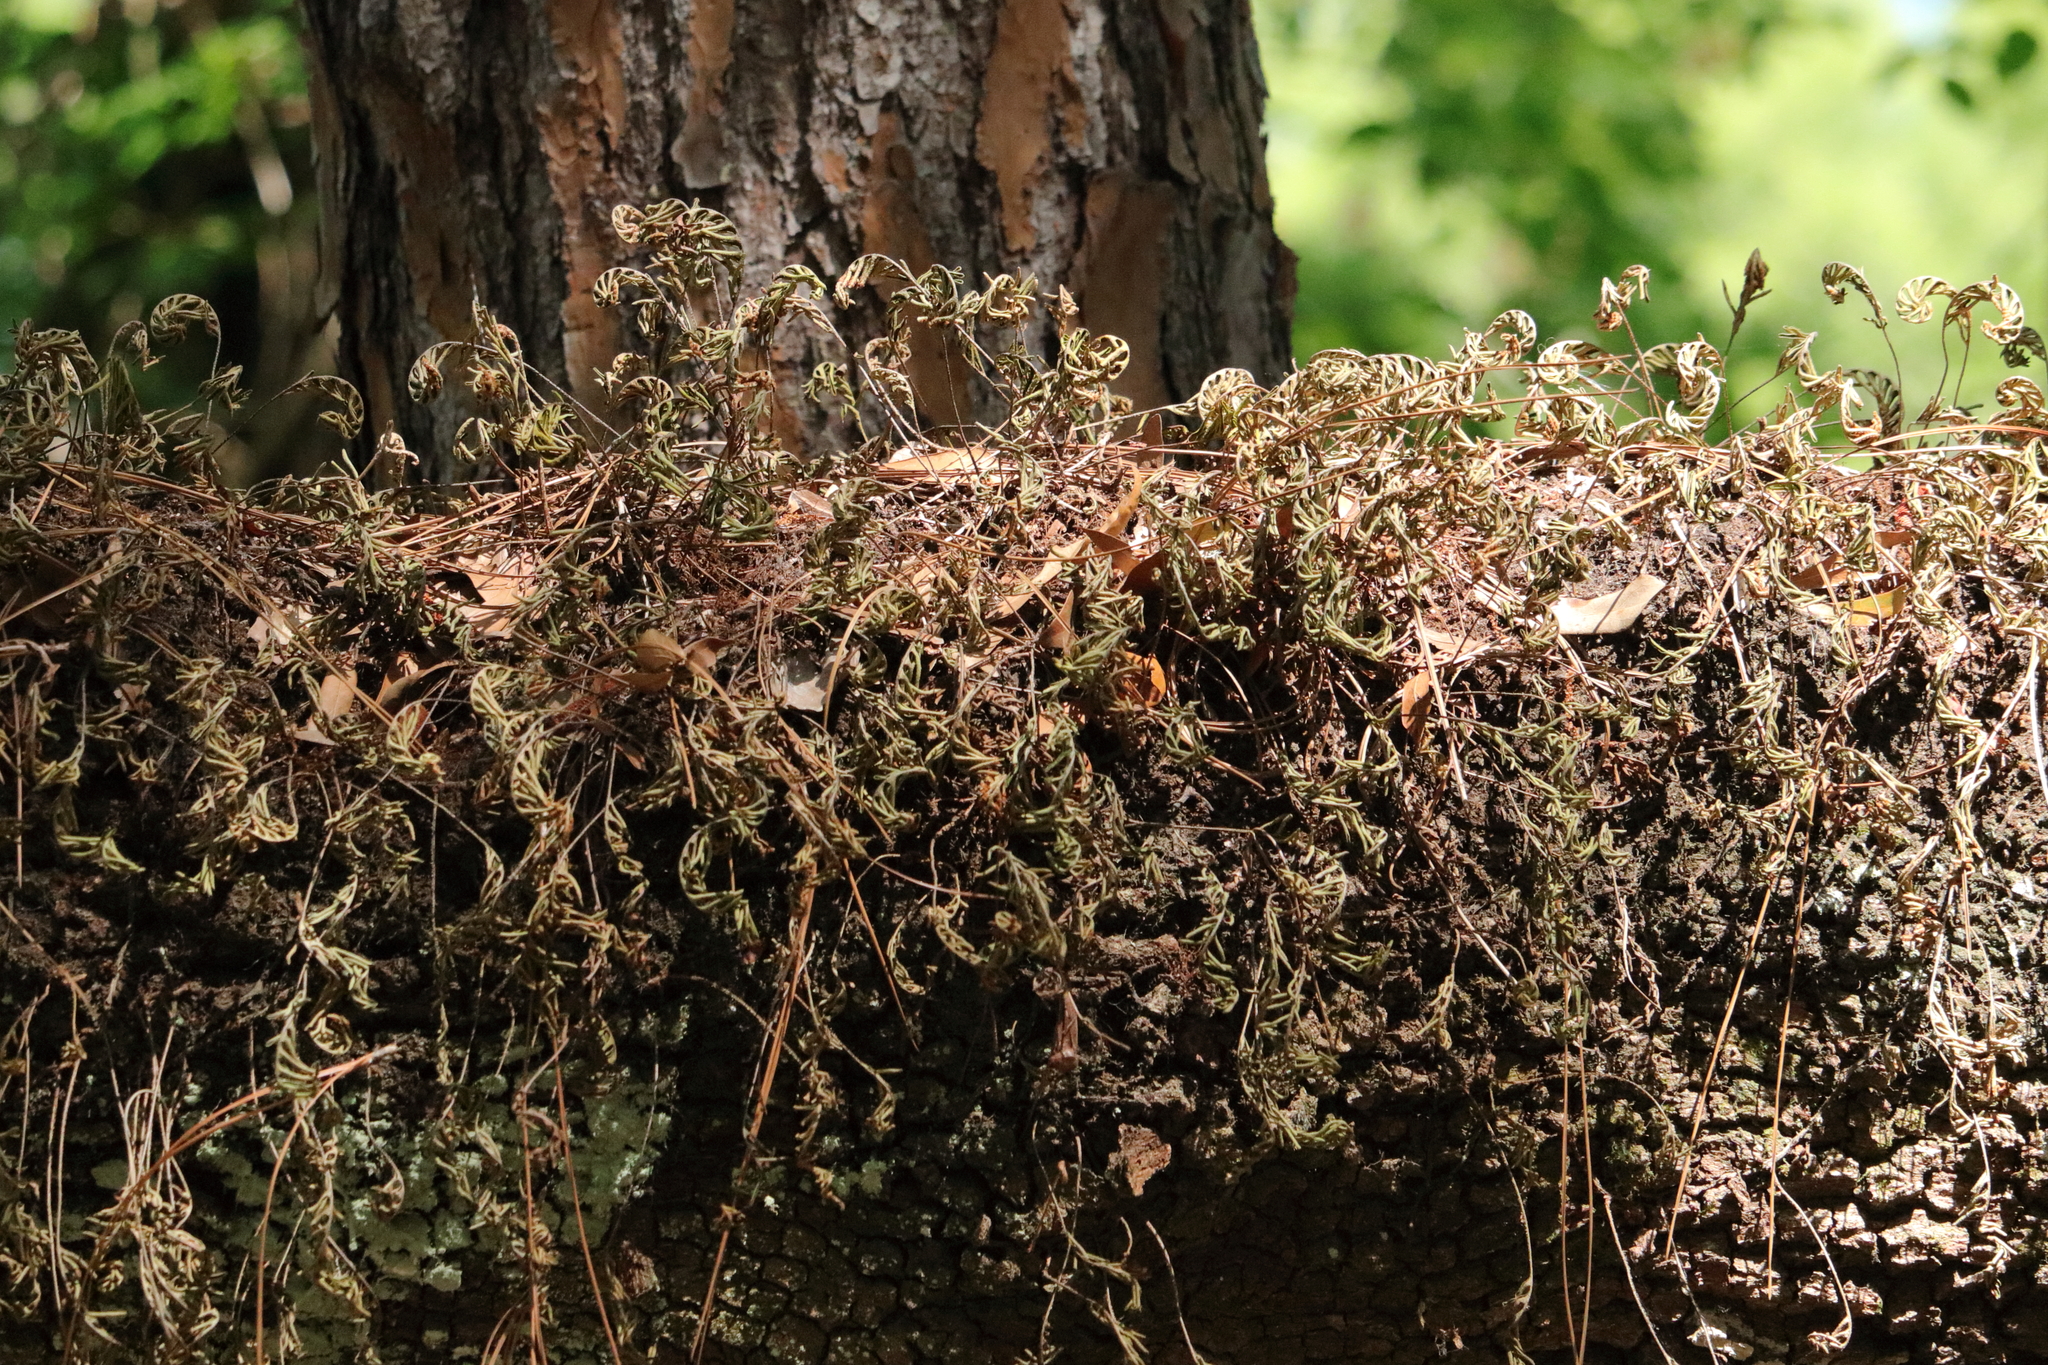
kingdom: Plantae
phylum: Tracheophyta
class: Polypodiopsida
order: Polypodiales
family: Polypodiaceae
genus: Pleopeltis
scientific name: Pleopeltis michauxiana
